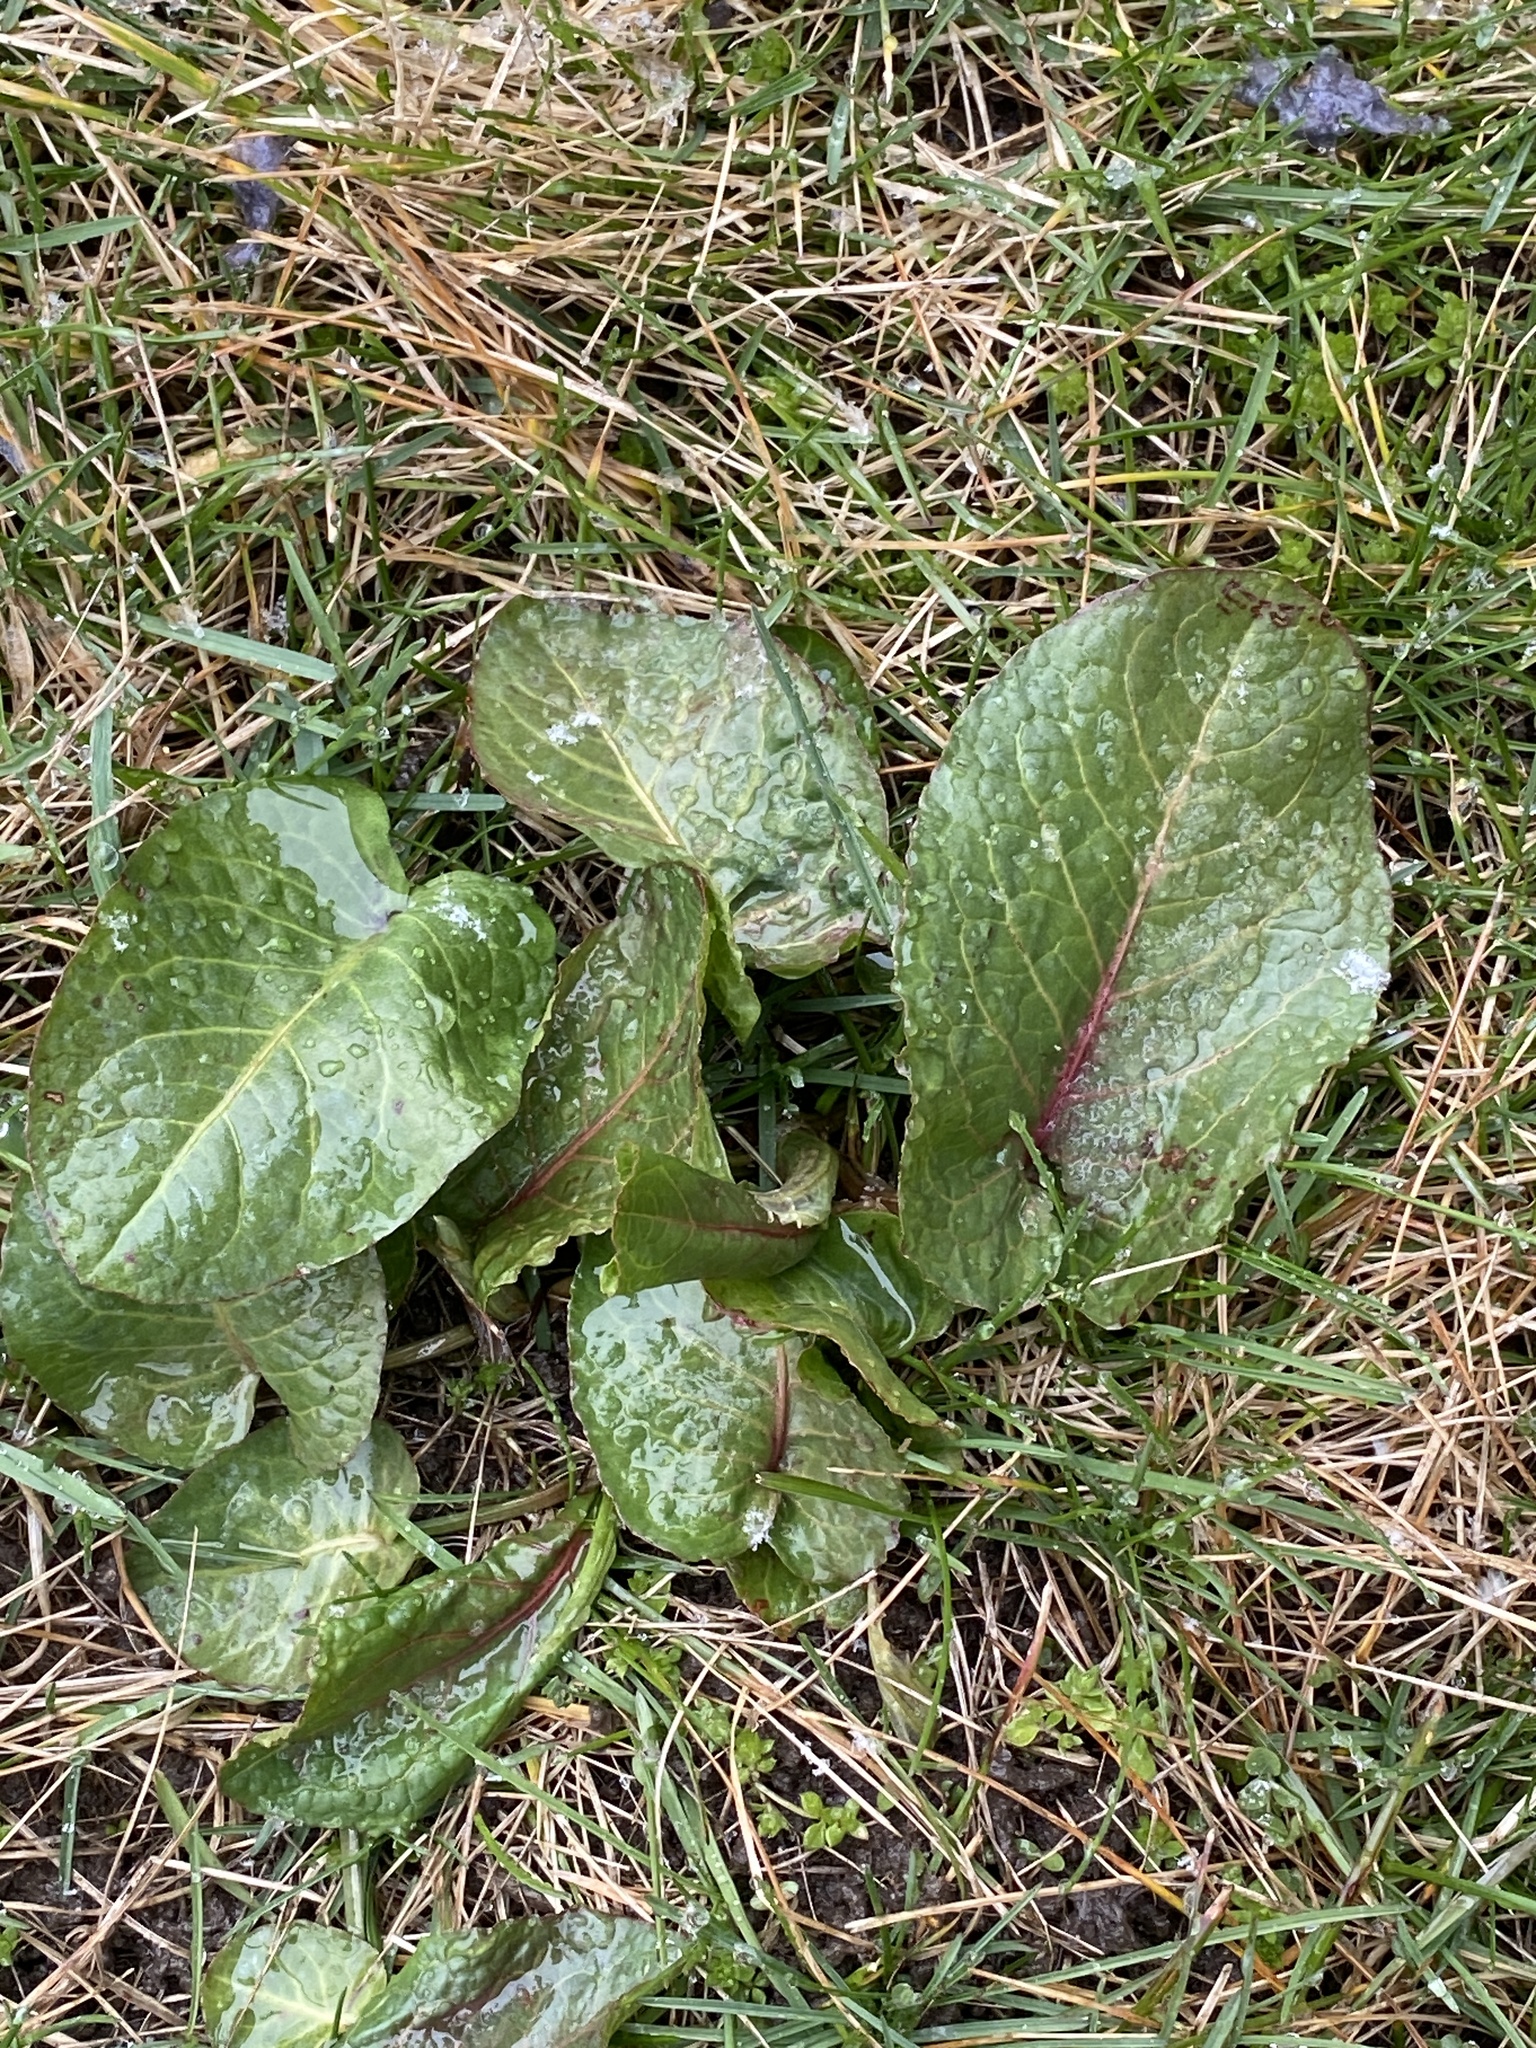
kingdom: Plantae
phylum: Tracheophyta
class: Magnoliopsida
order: Caryophyllales
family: Polygonaceae
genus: Rumex
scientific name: Rumex obtusifolius
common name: Bitter dock
